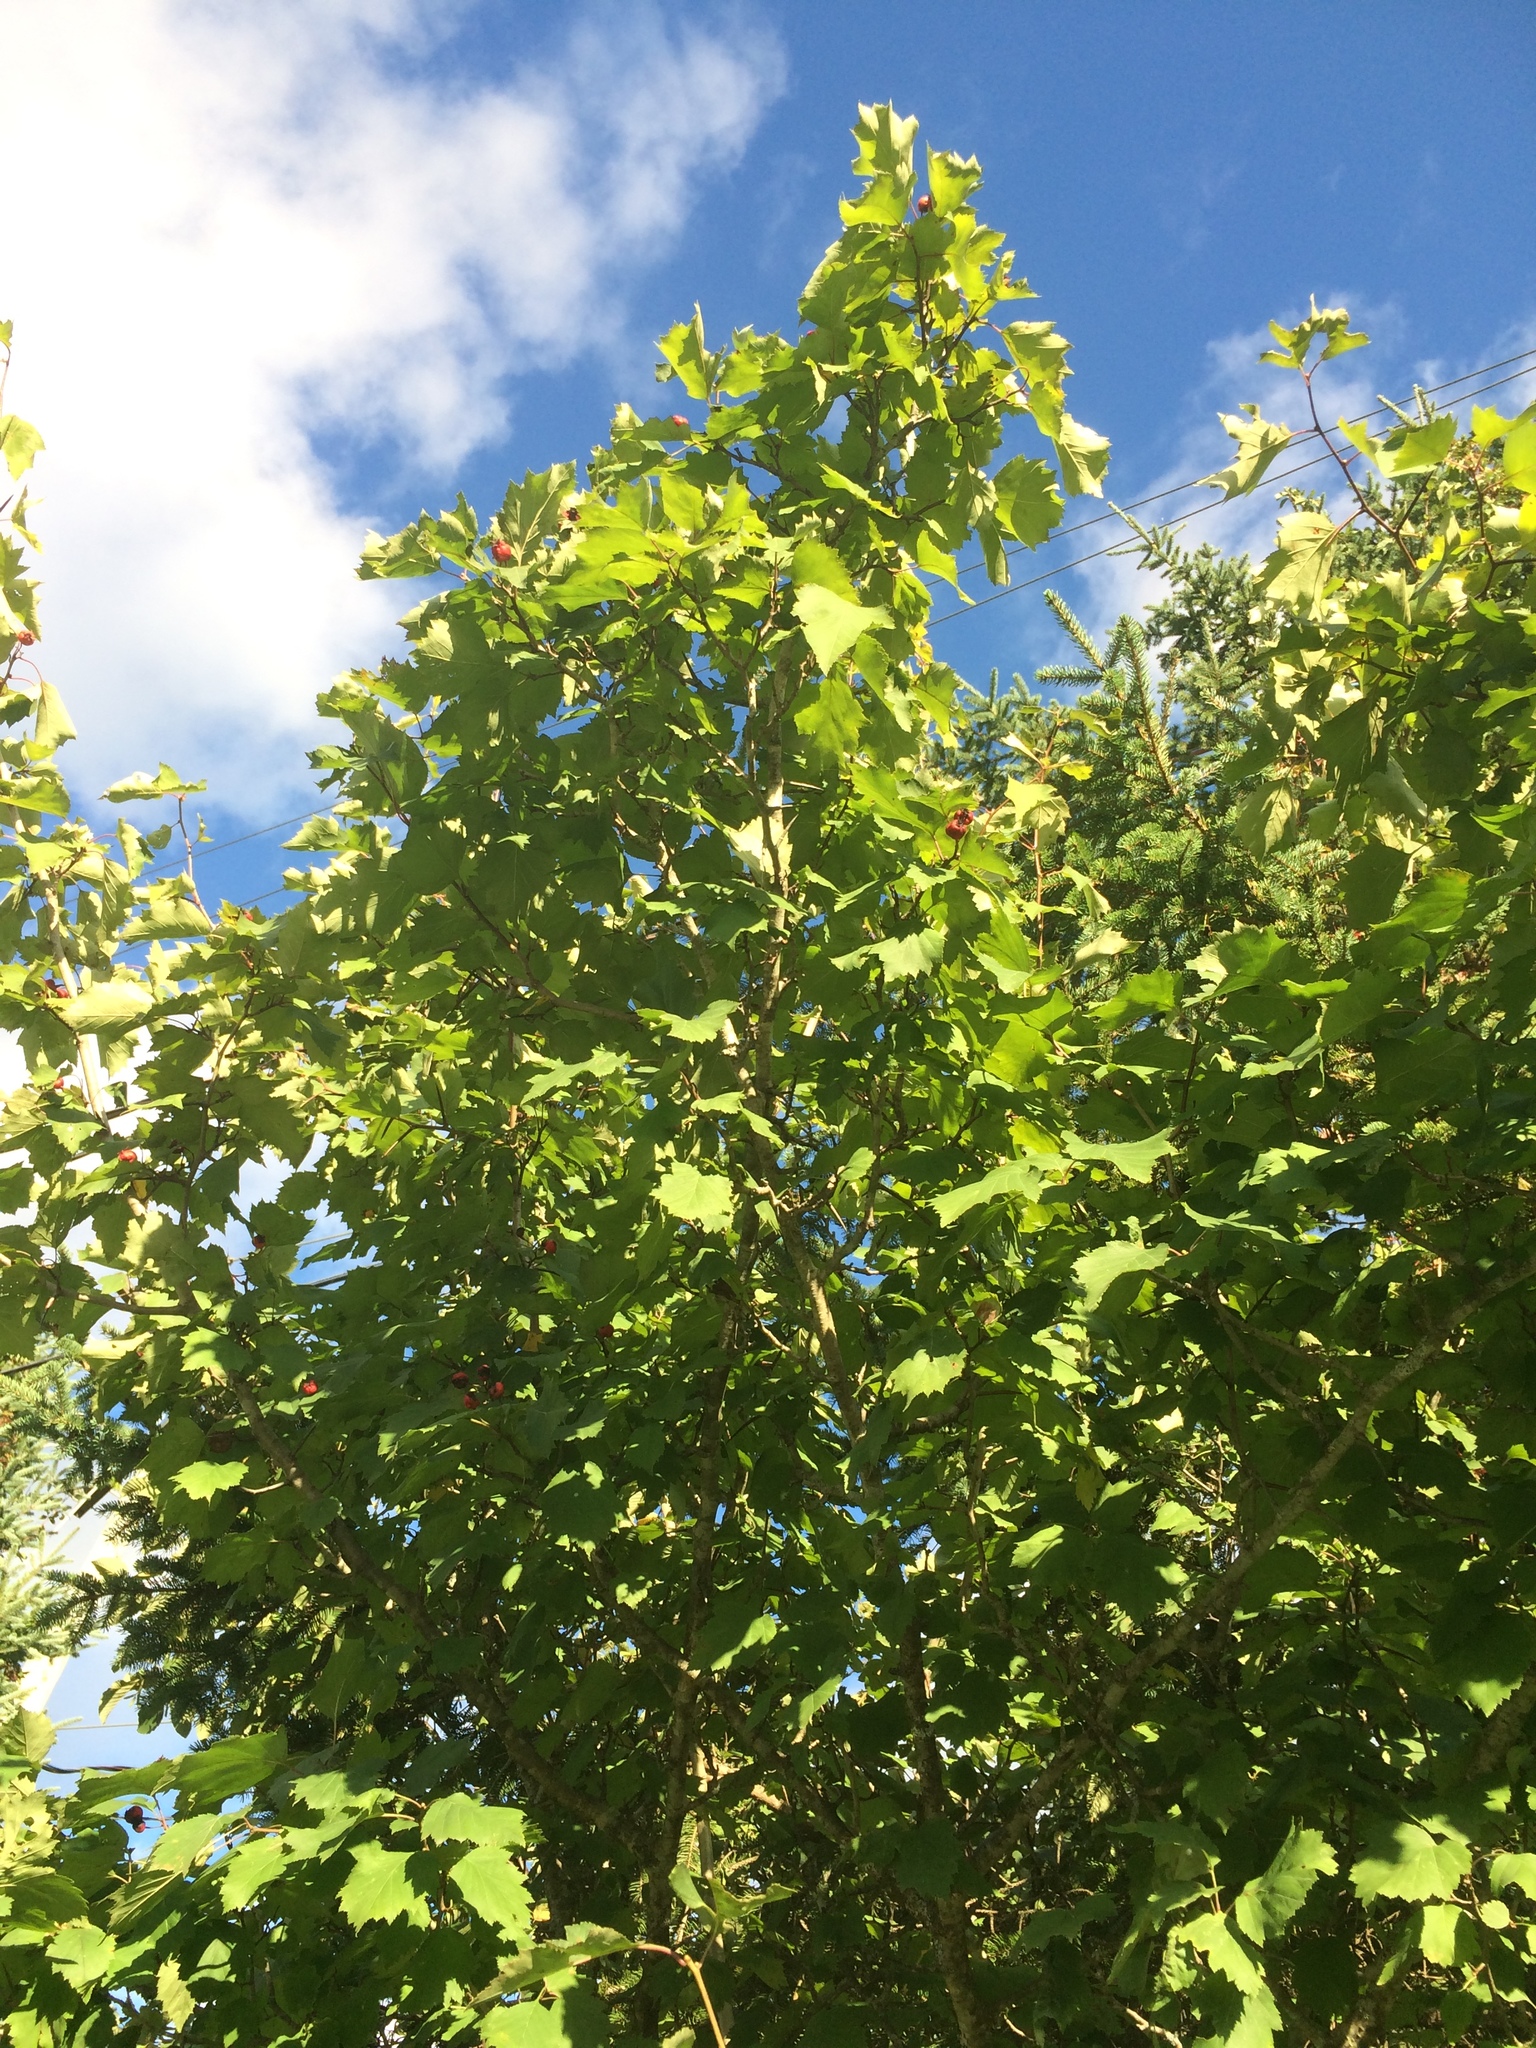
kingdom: Plantae
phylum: Tracheophyta
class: Magnoliopsida
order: Rosales
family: Rosaceae
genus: Crataegus
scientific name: Crataegus schuettei
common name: Schuette's hawthorn
